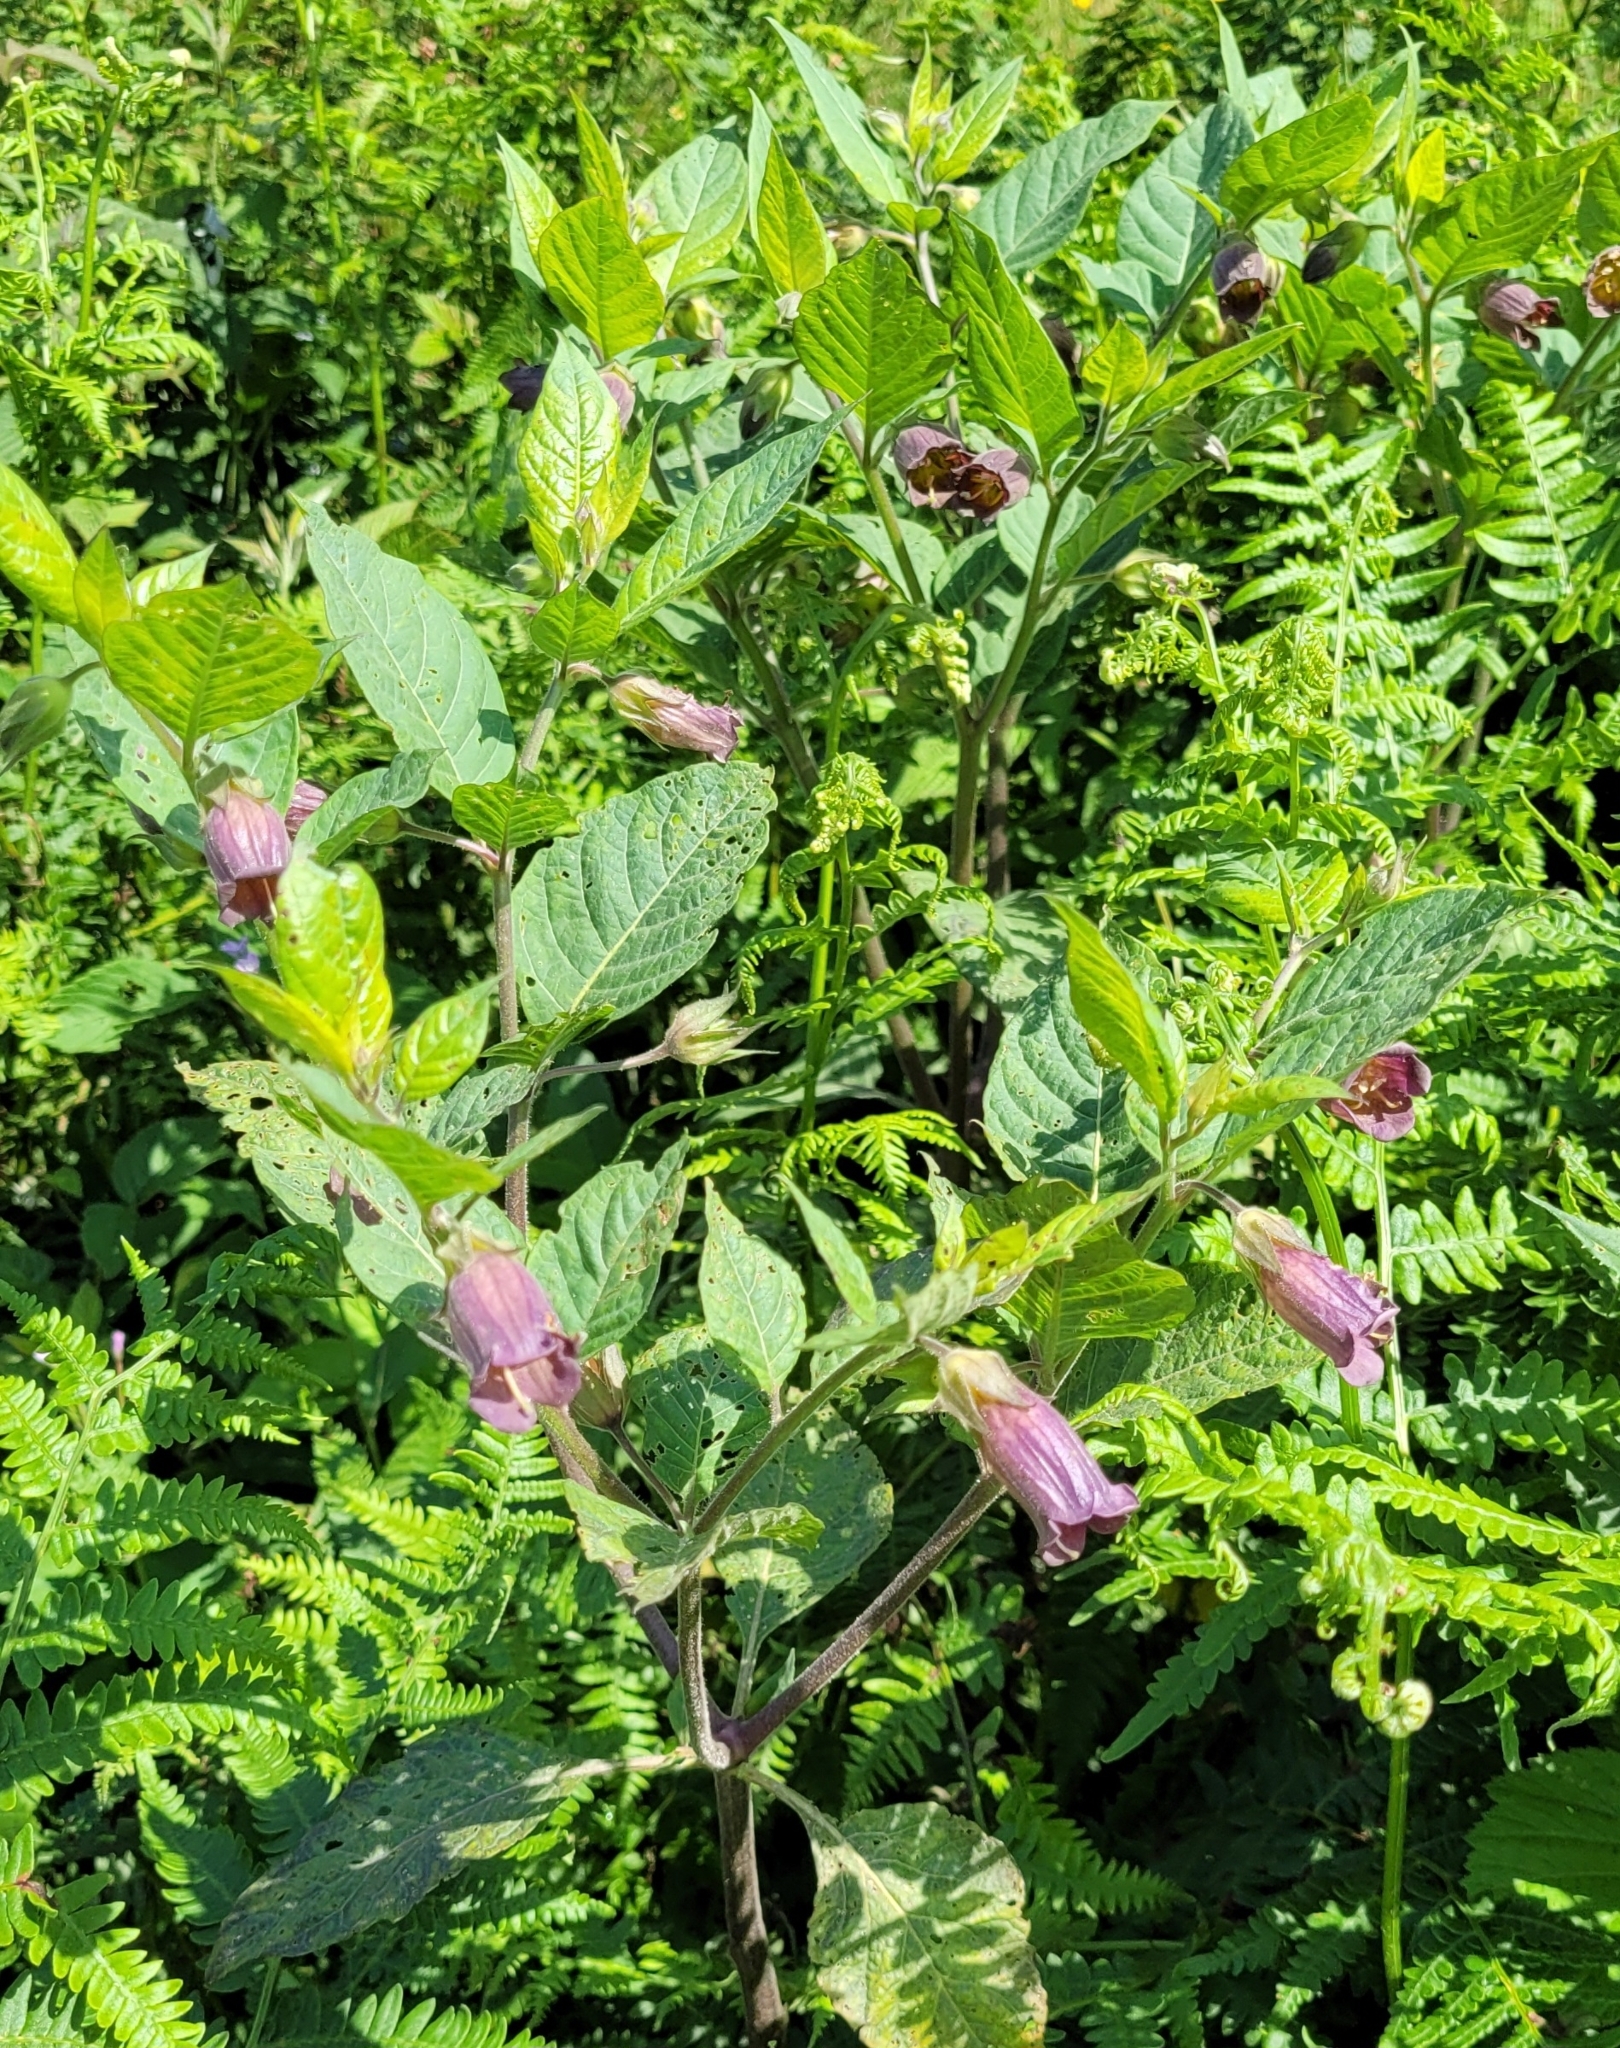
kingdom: Plantae
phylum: Tracheophyta
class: Magnoliopsida
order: Solanales
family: Solanaceae
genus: Atropa
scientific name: Atropa belladonna
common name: Deadly nightshade
